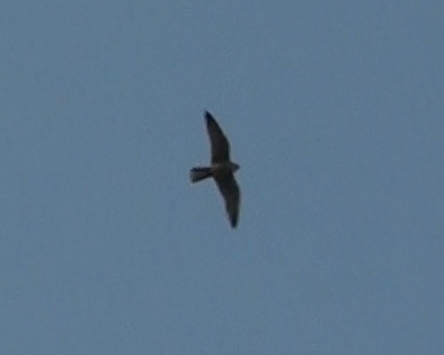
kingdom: Animalia
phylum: Chordata
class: Aves
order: Falconiformes
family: Falconidae
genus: Falco
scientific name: Falco peregrinus
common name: Peregrine falcon
